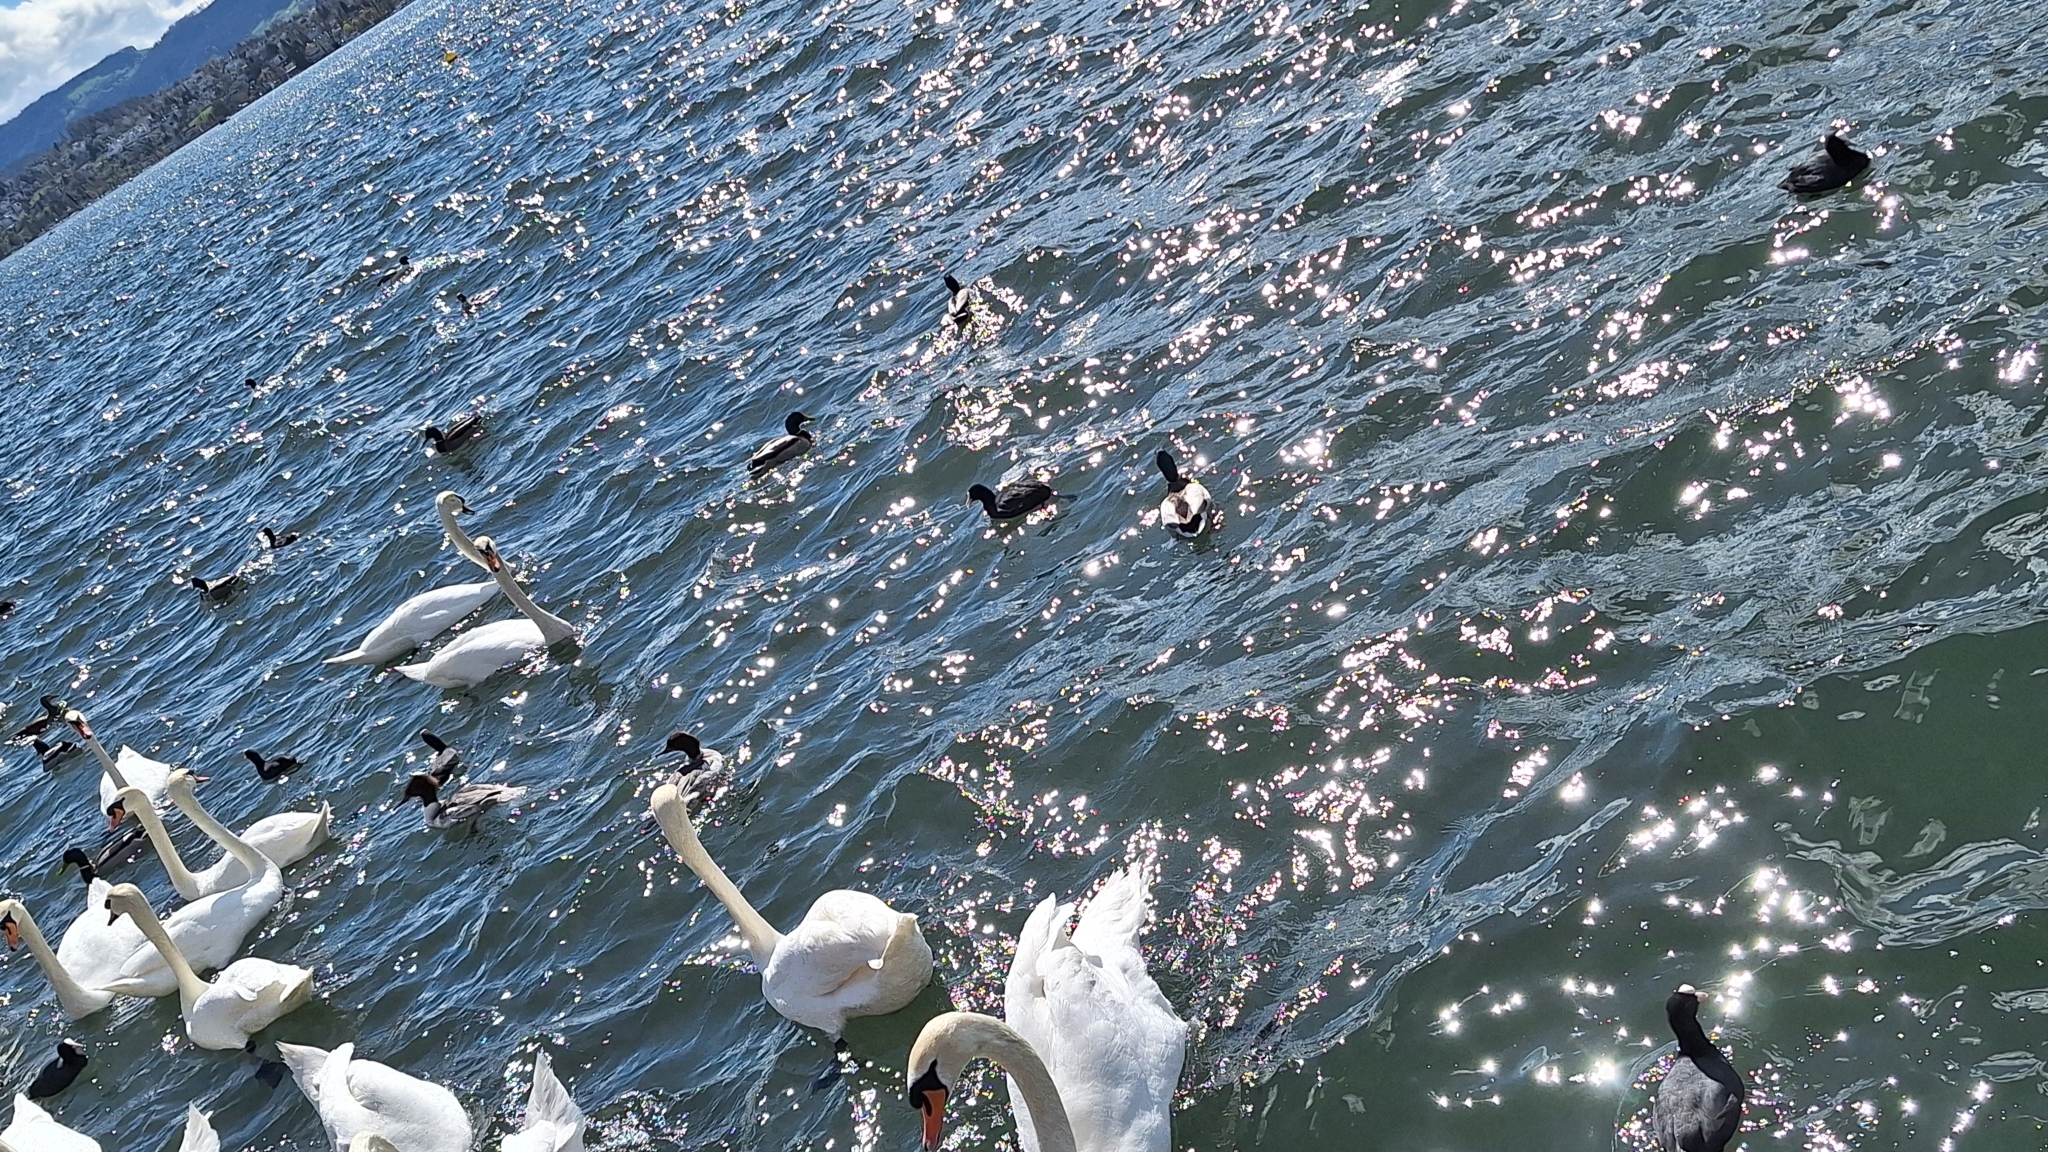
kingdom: Animalia
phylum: Chordata
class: Aves
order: Anseriformes
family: Anatidae
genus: Cygnus
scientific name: Cygnus olor
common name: Mute swan
